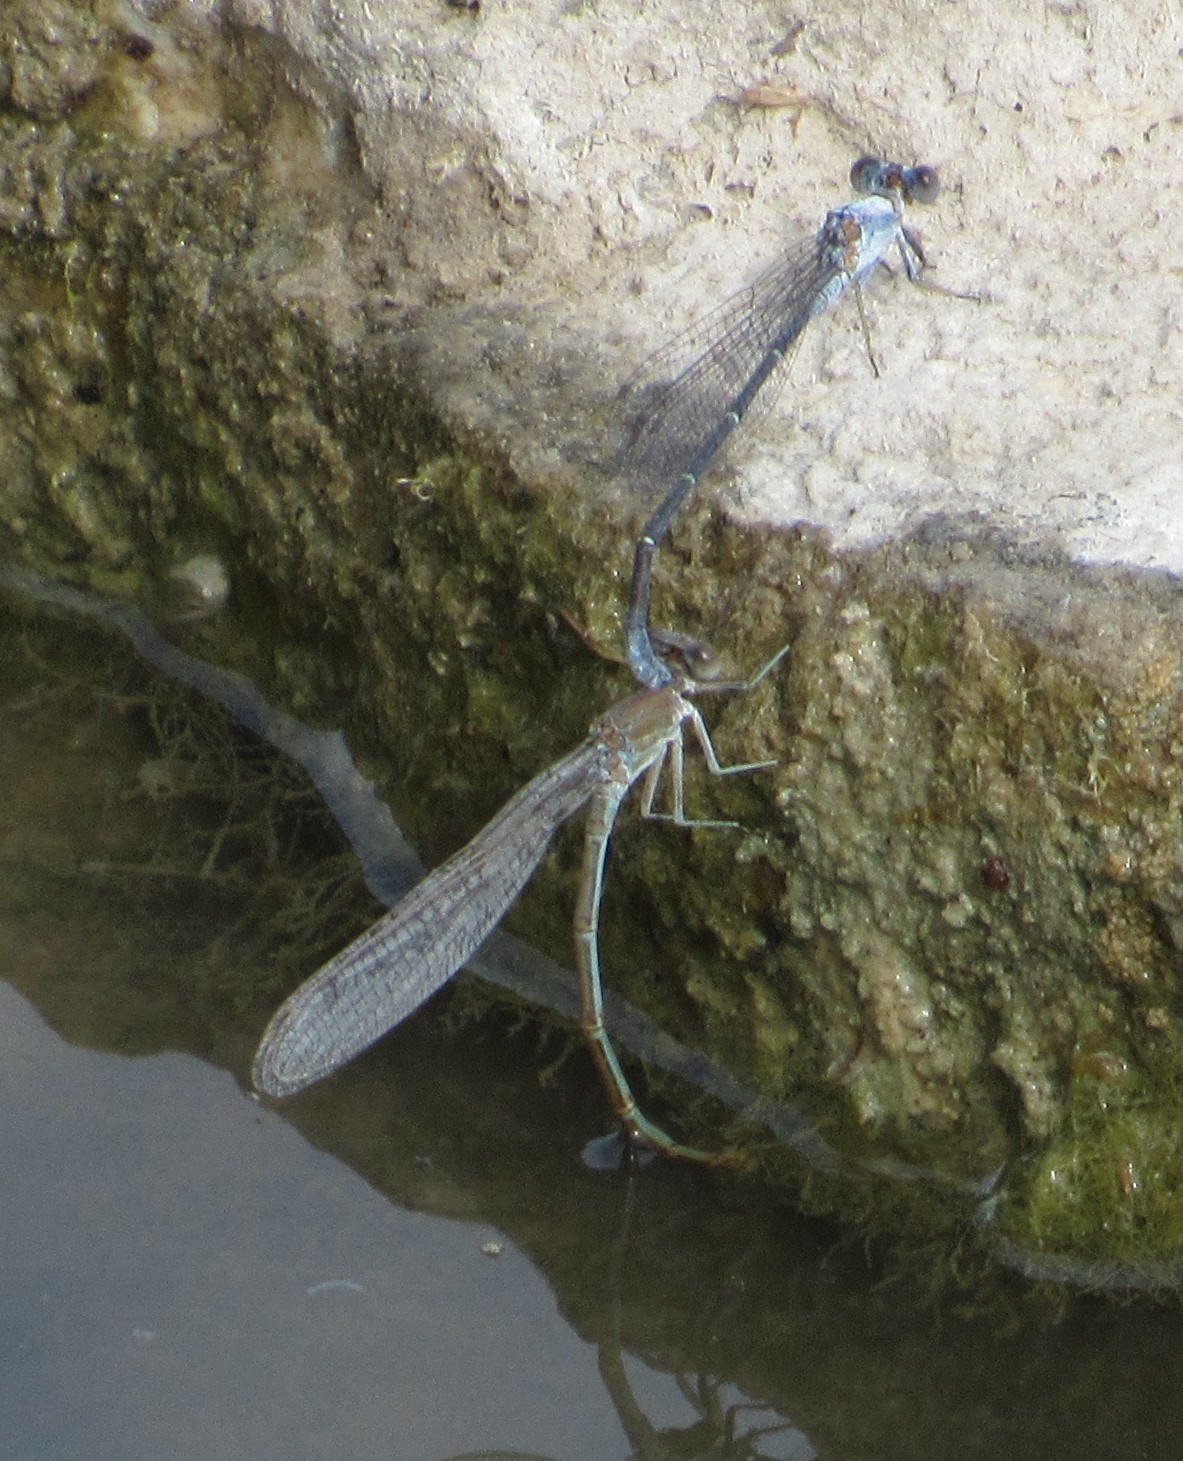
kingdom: Animalia
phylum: Arthropoda
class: Insecta
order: Odonata
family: Coenagrionidae
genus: Argia
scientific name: Argia moesta
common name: Powdered dancer
